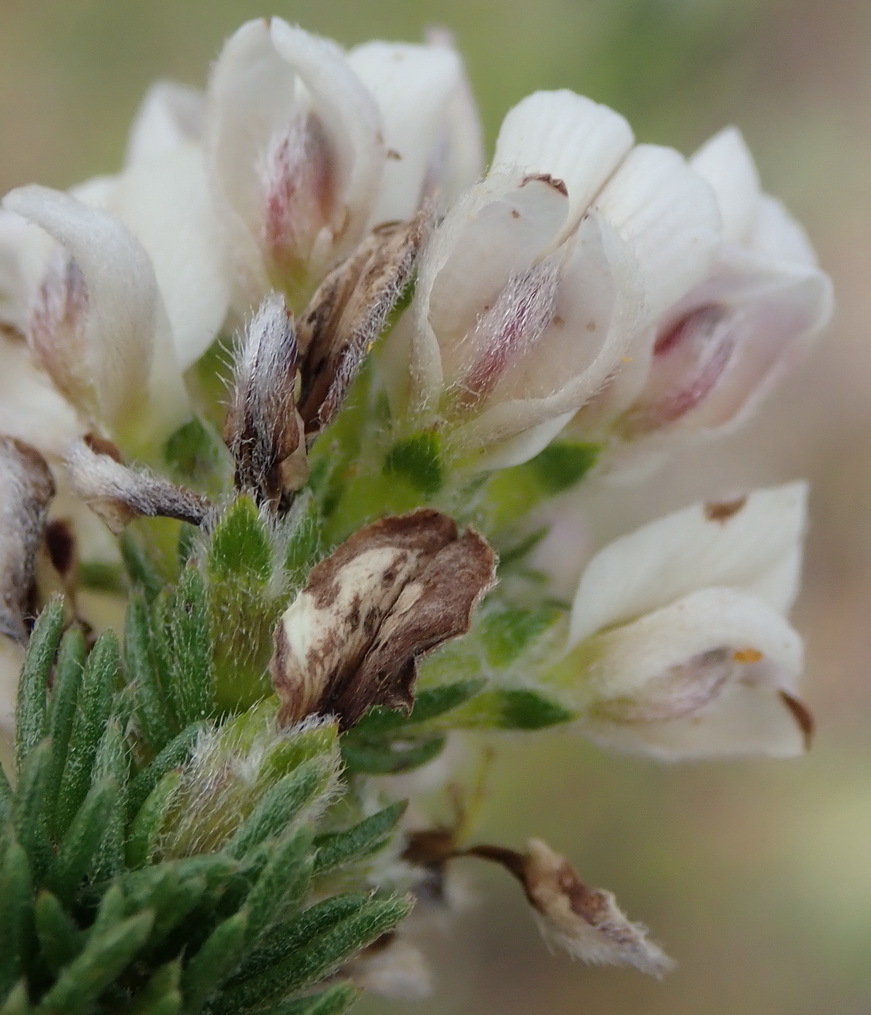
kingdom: Plantae
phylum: Tracheophyta
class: Magnoliopsida
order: Fabales
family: Fabaceae
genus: Aspalathus
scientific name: Aspalathus nigra
